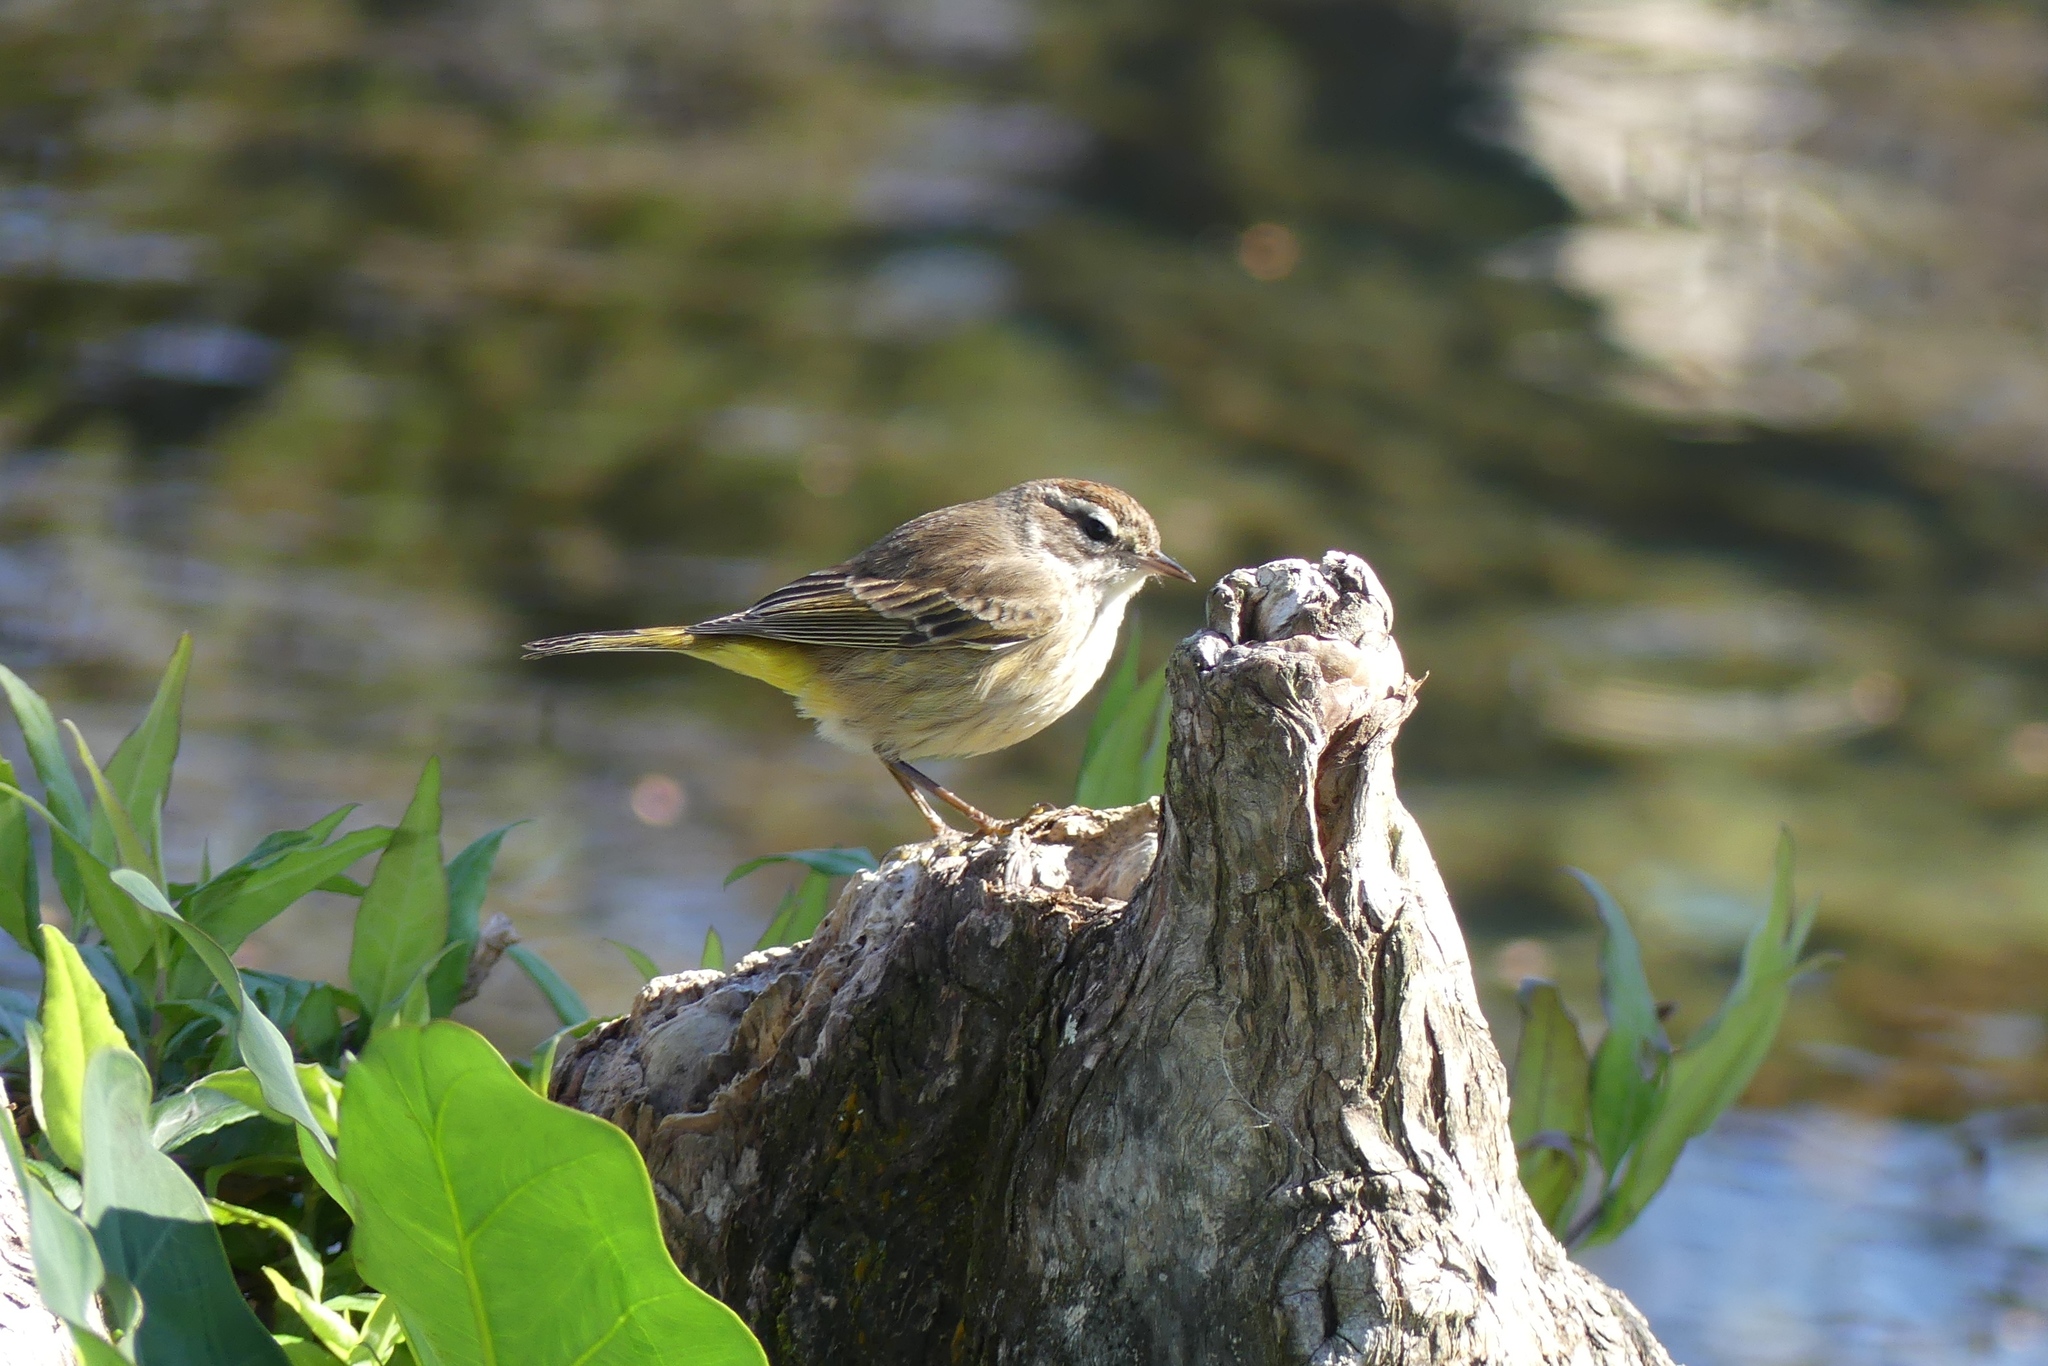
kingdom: Animalia
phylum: Chordata
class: Aves
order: Passeriformes
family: Parulidae
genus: Setophaga
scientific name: Setophaga palmarum
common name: Palm warbler
